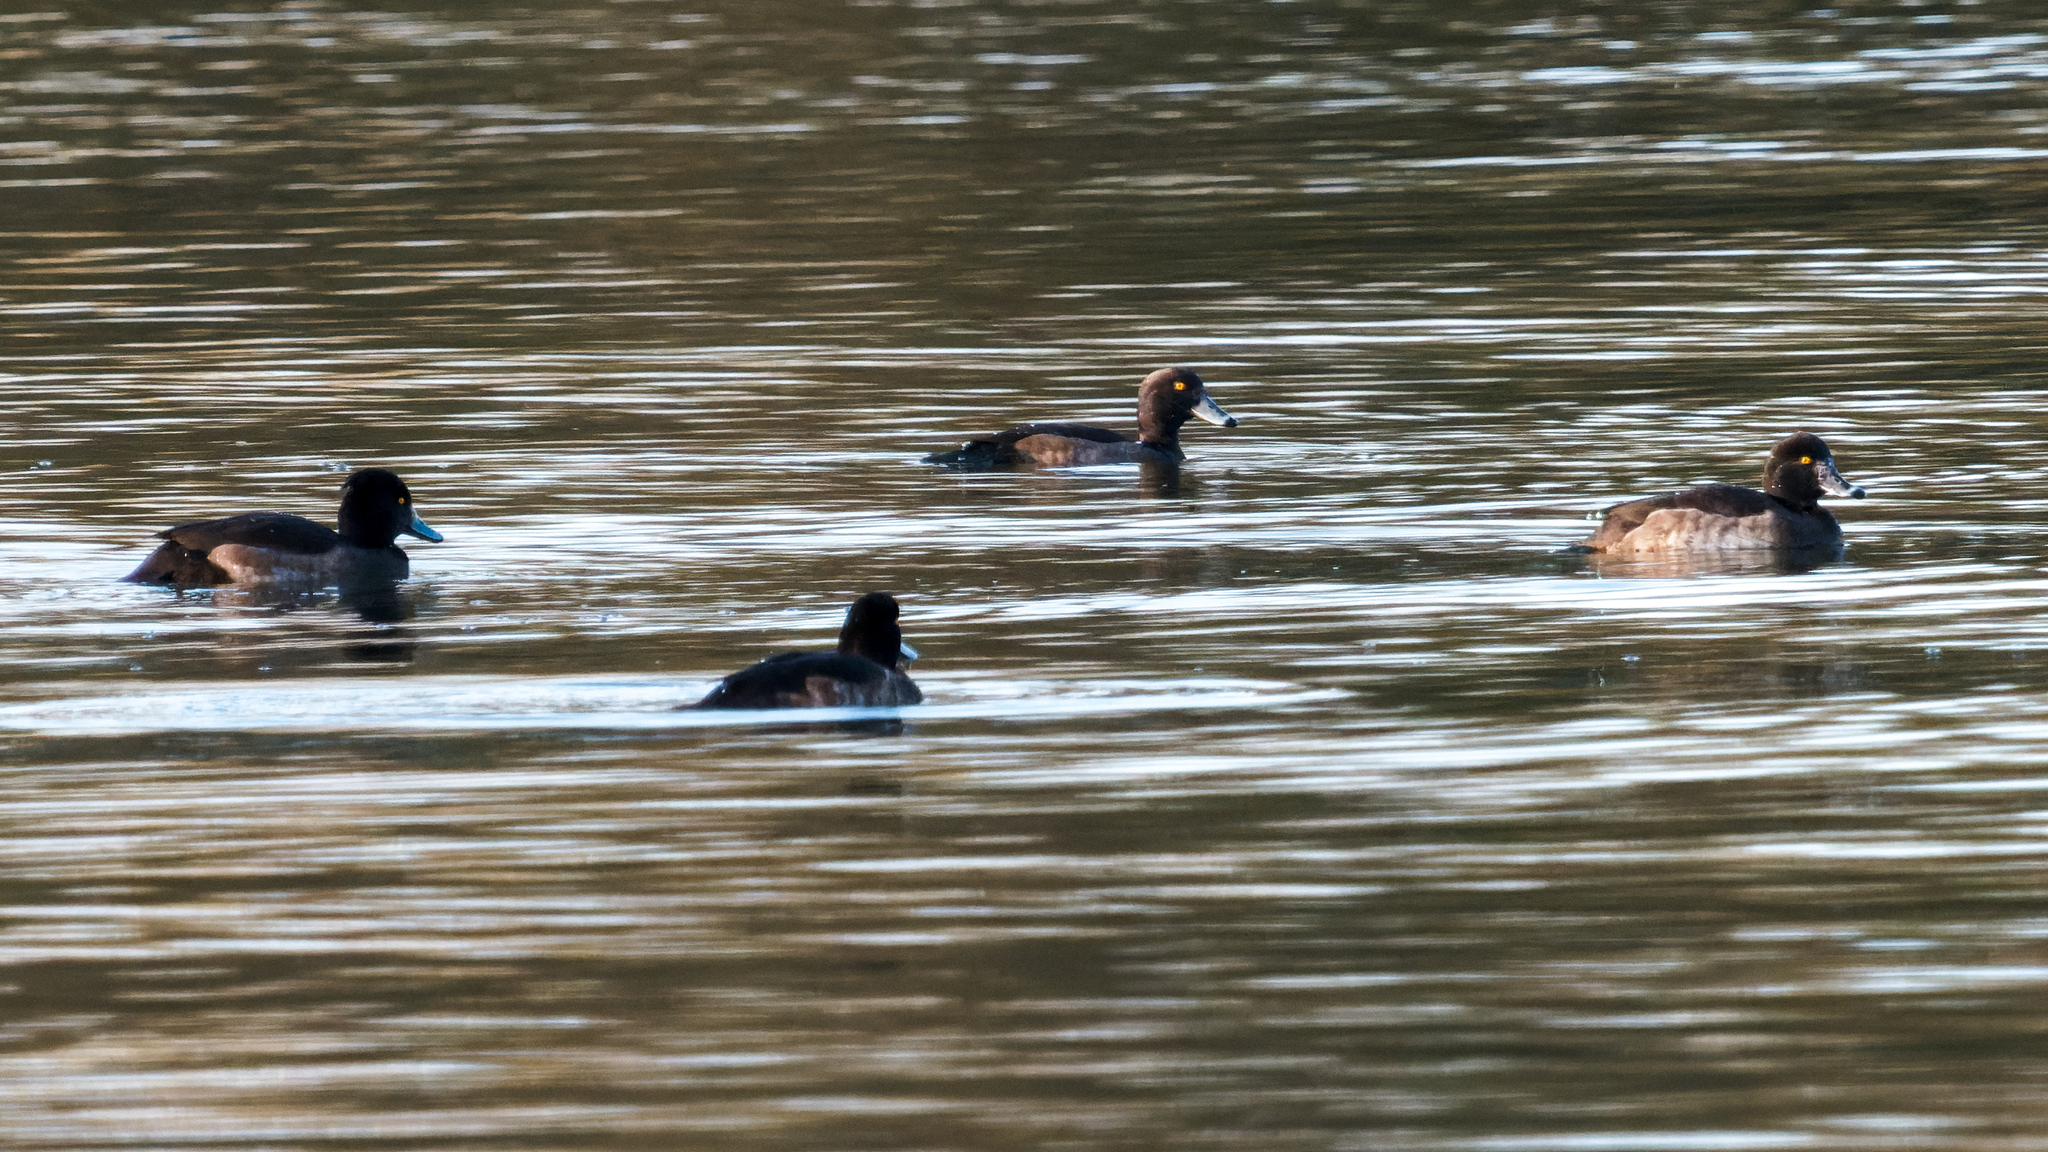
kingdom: Animalia
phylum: Chordata
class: Aves
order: Anseriformes
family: Anatidae
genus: Aythya
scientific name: Aythya fuligula
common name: Tufted duck
